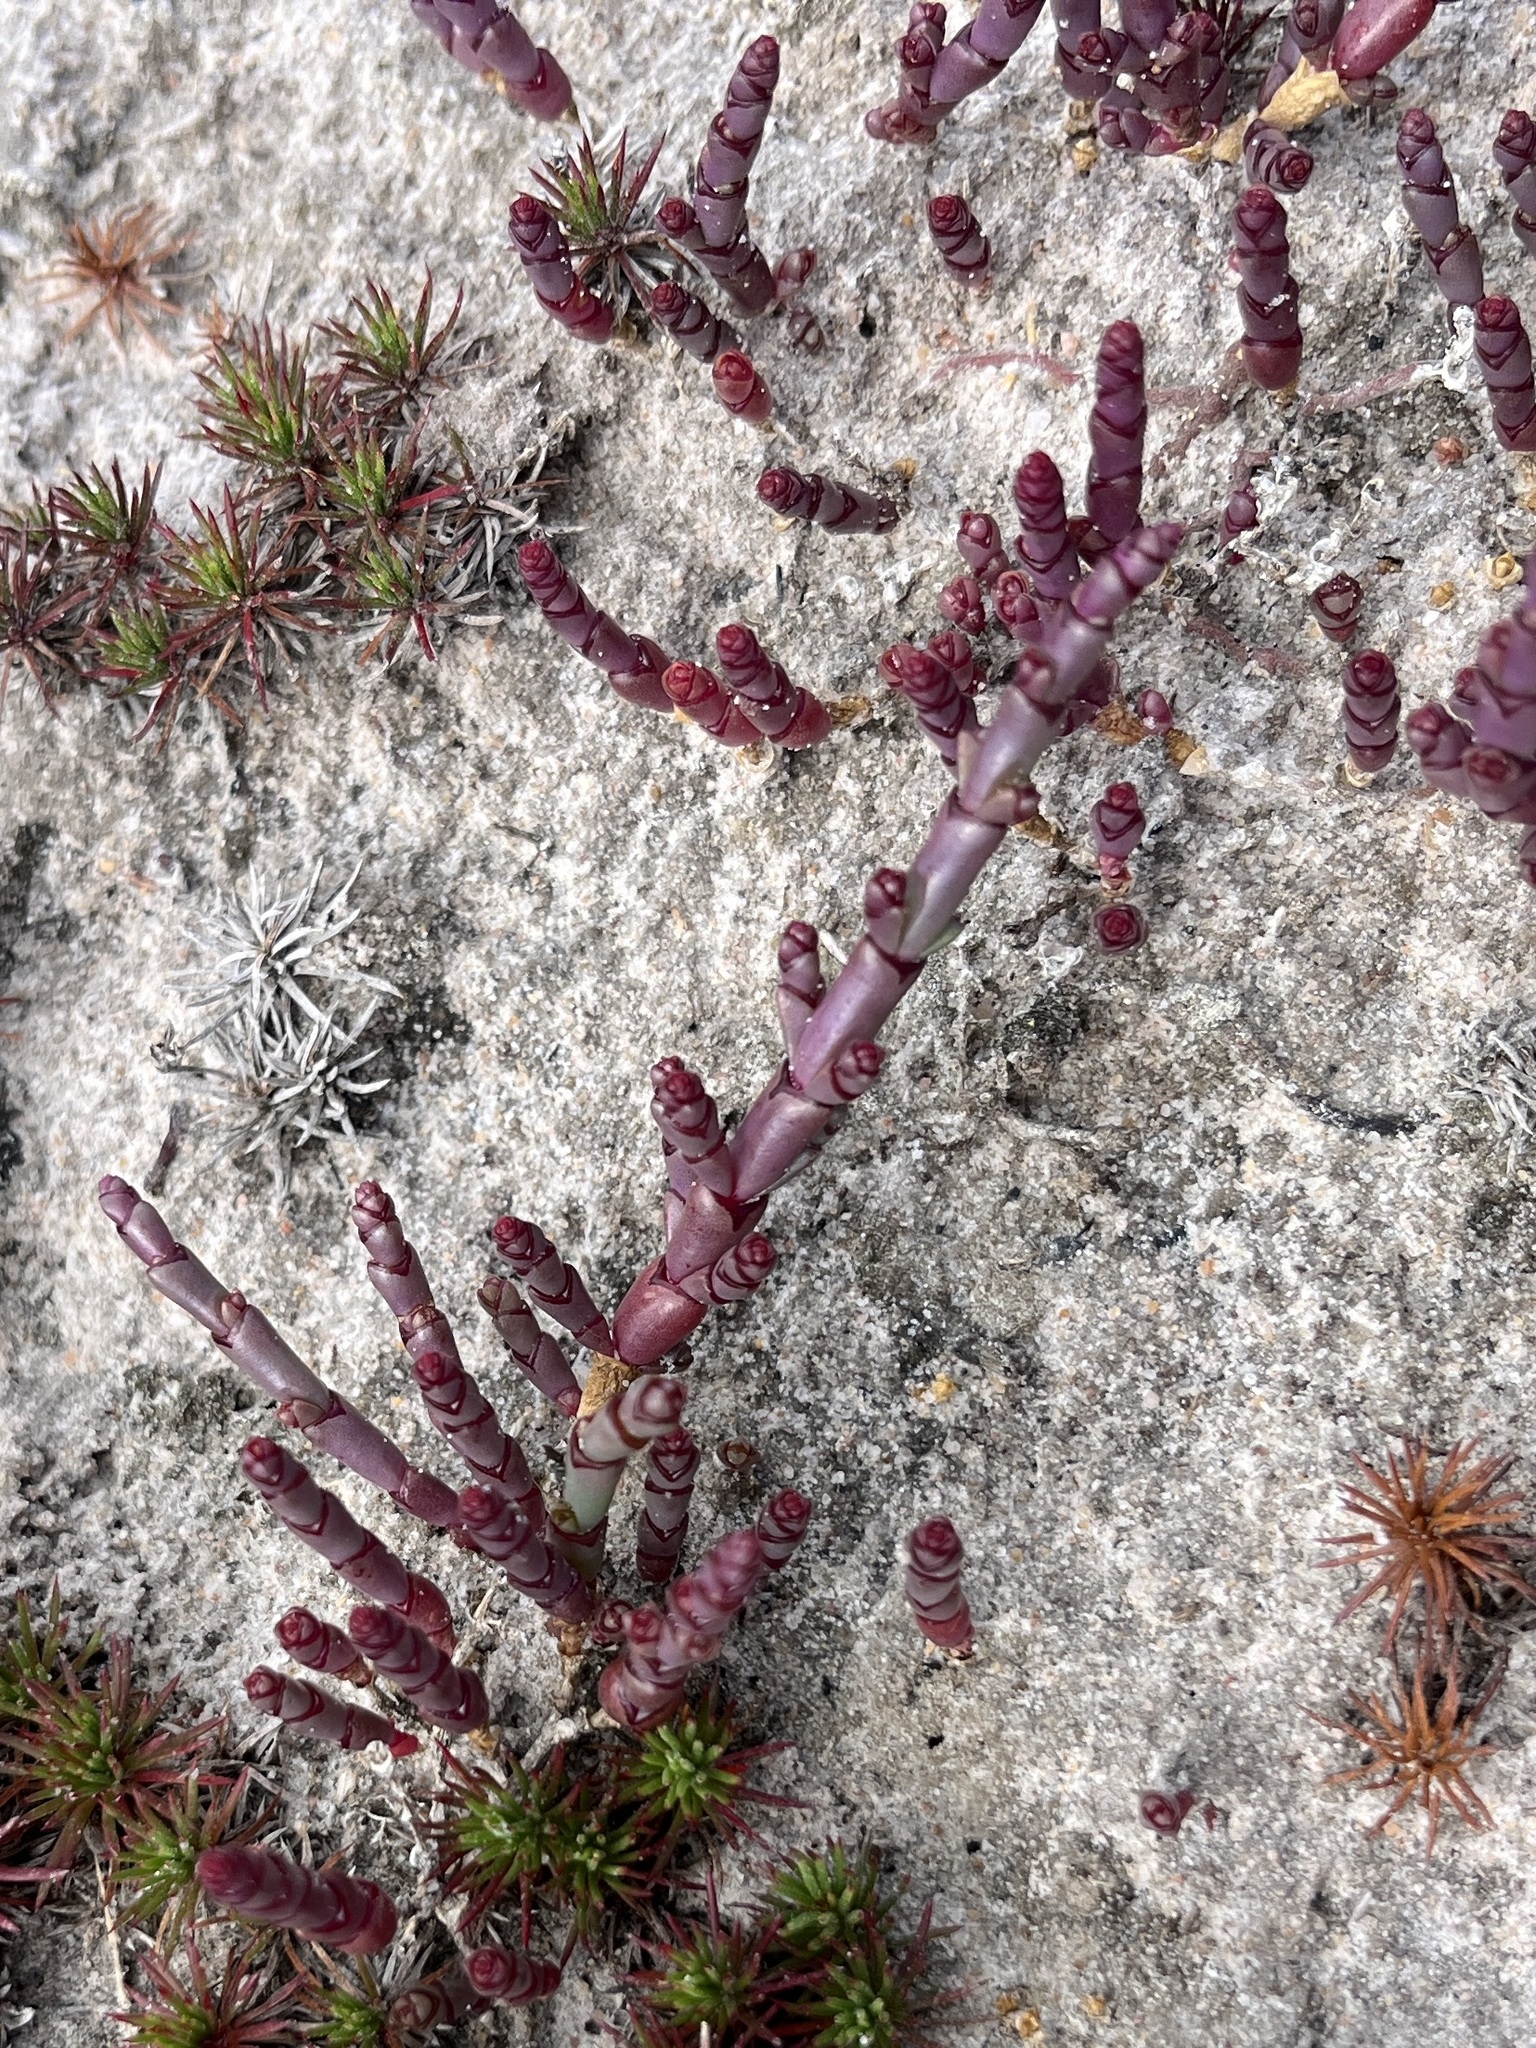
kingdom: Plantae
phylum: Tracheophyta
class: Magnoliopsida
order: Caryophyllales
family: Amaranthaceae
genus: Salicornia
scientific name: Salicornia natalensis
